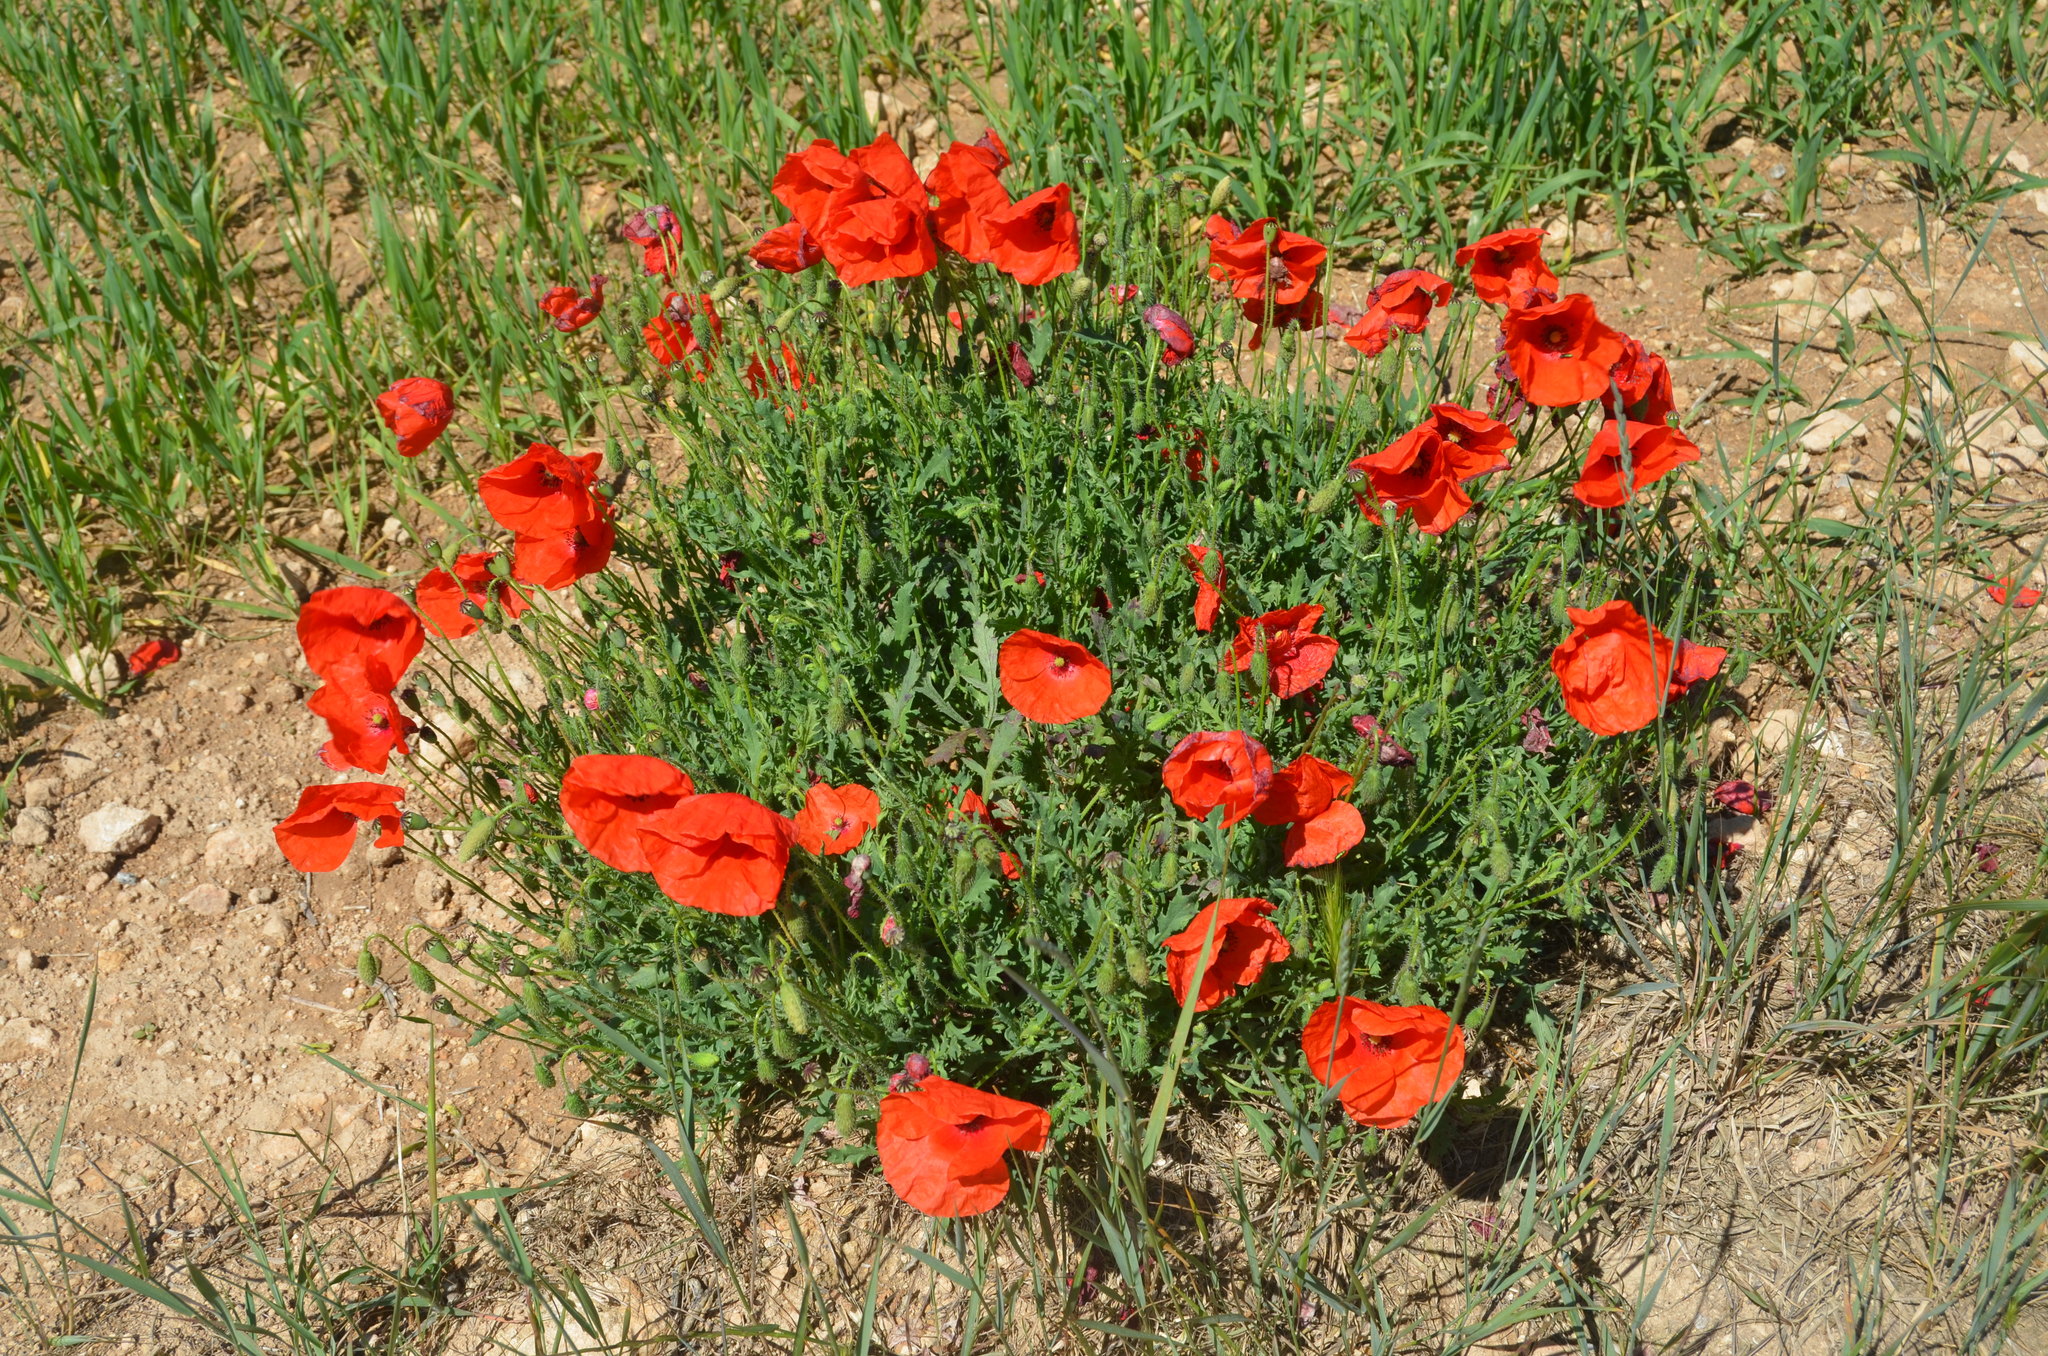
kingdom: Plantae
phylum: Tracheophyta
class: Magnoliopsida
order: Ranunculales
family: Papaveraceae
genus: Papaver
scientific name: Papaver rhoeas
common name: Corn poppy
